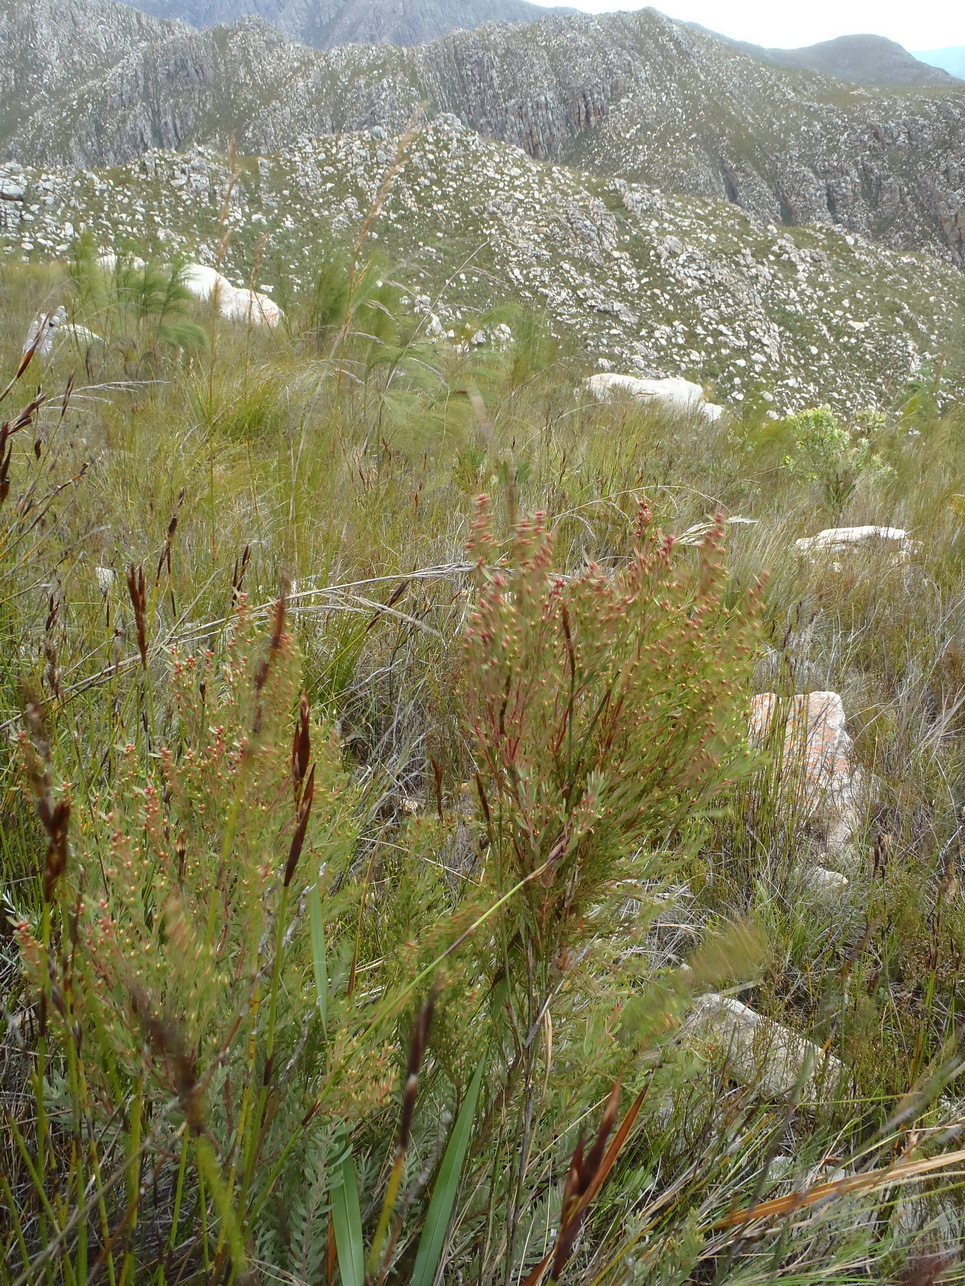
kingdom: Plantae
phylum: Tracheophyta
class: Magnoliopsida
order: Proteales
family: Proteaceae
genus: Leucadendron
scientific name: Leucadendron rubrum
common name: Spinning top
